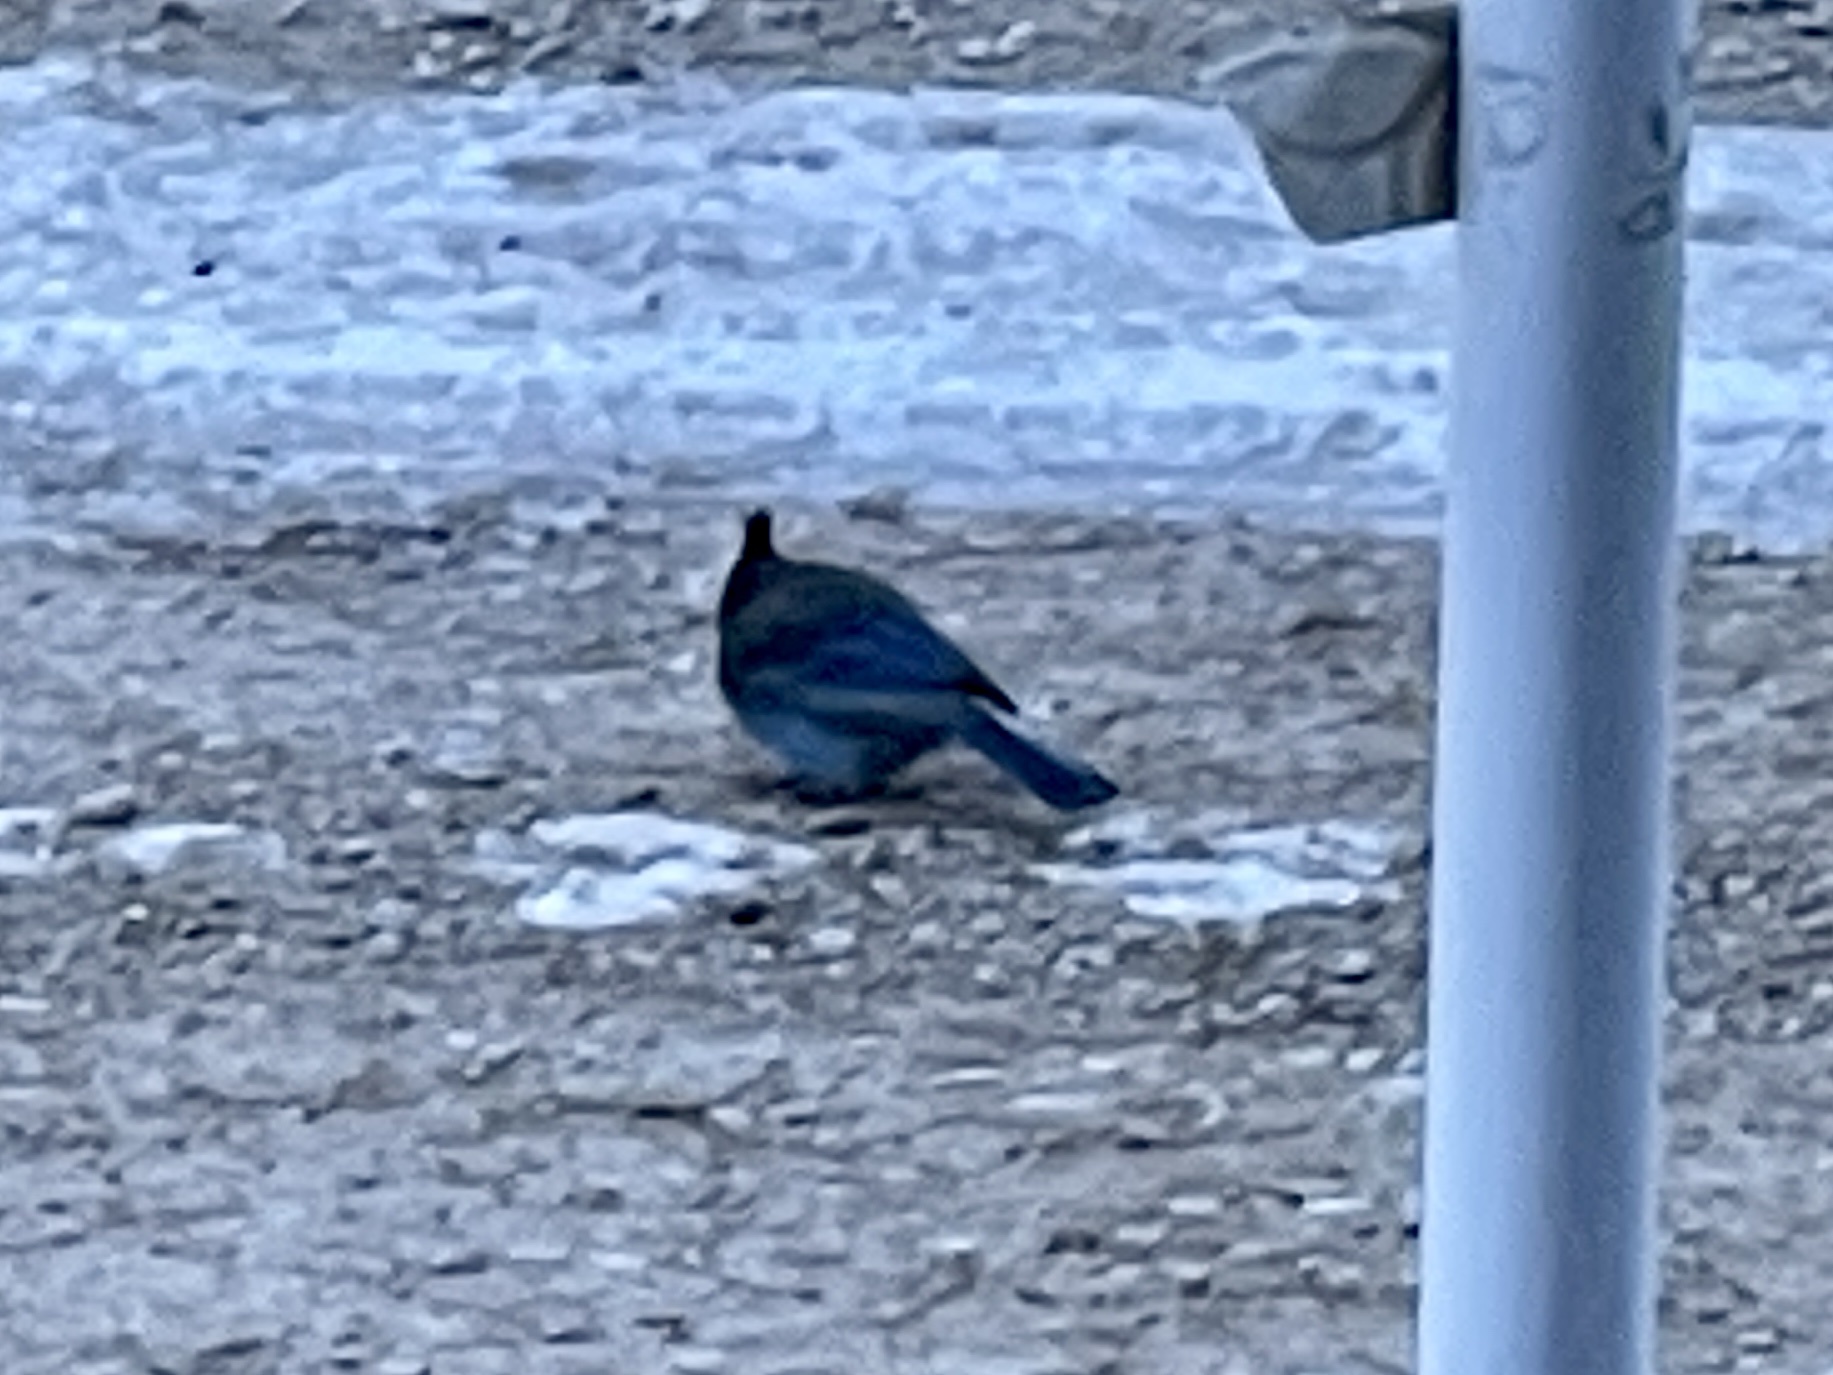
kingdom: Animalia
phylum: Chordata
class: Aves
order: Passeriformes
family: Corvidae
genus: Cyanocitta
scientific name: Cyanocitta stelleri
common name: Steller's jay
